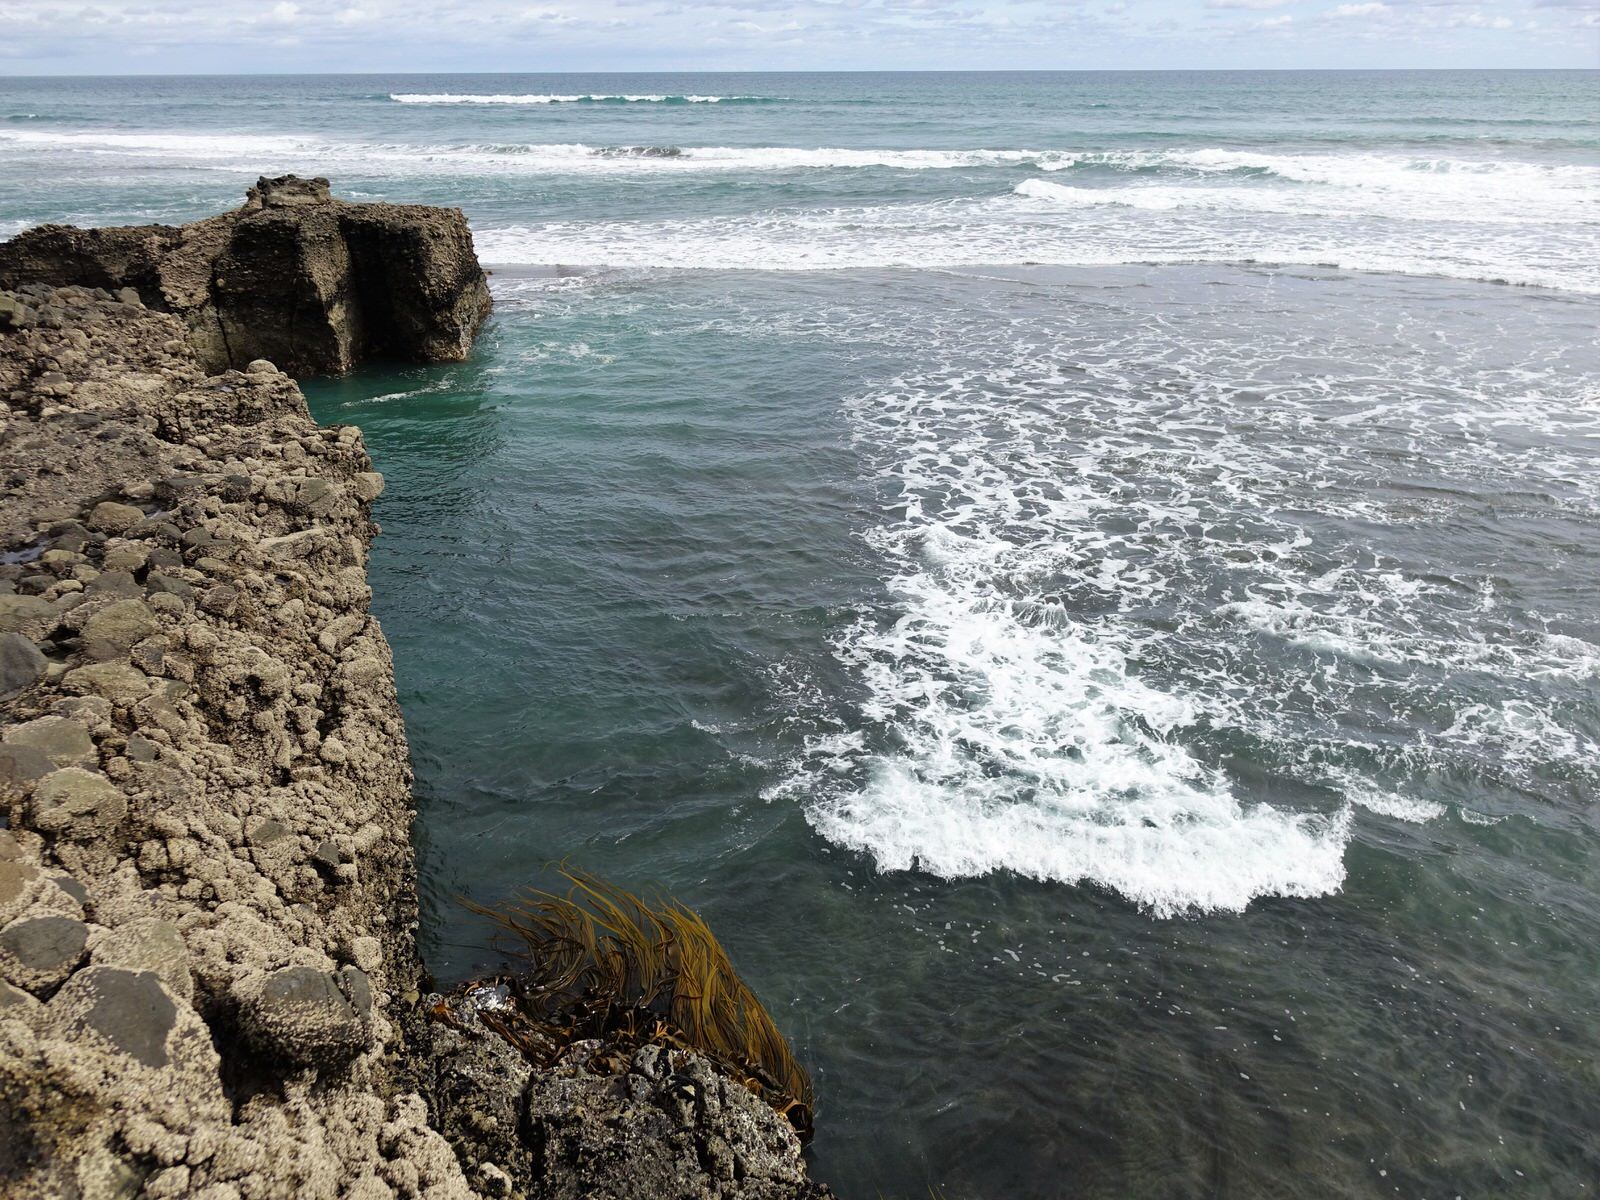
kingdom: Chromista
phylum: Ochrophyta
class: Phaeophyceae
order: Fucales
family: Durvillaeaceae
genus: Durvillaea
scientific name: Durvillaea antarctica
